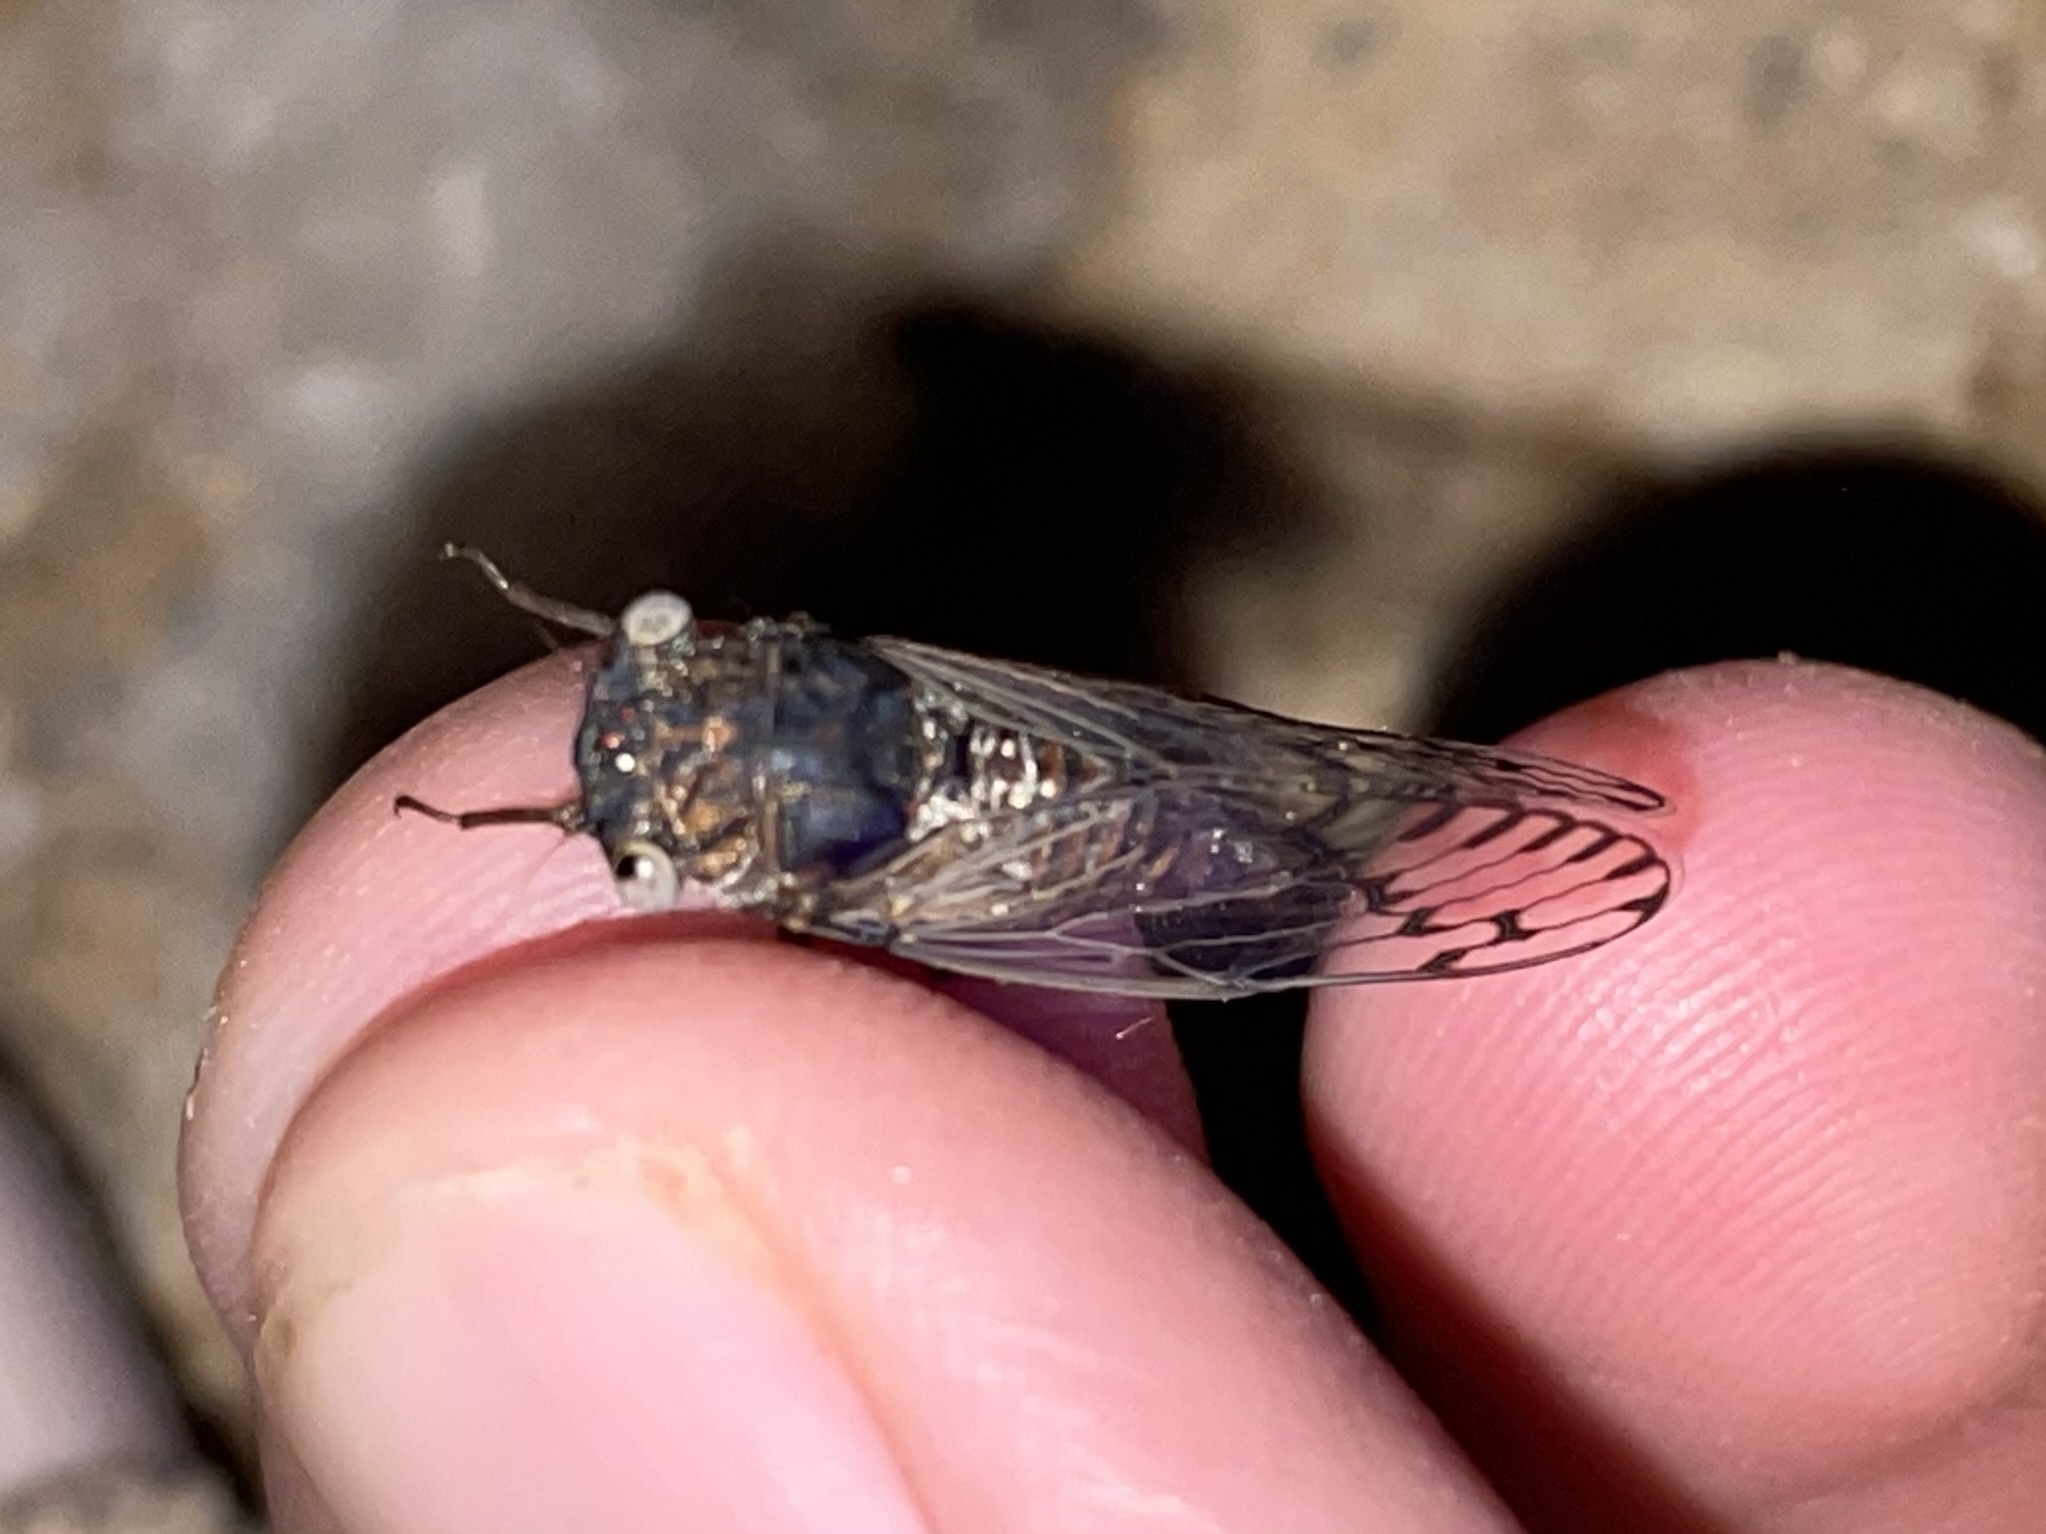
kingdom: Animalia
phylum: Arthropoda
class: Insecta
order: Hemiptera
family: Cicadidae
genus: Pacarina
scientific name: Pacarina puella
